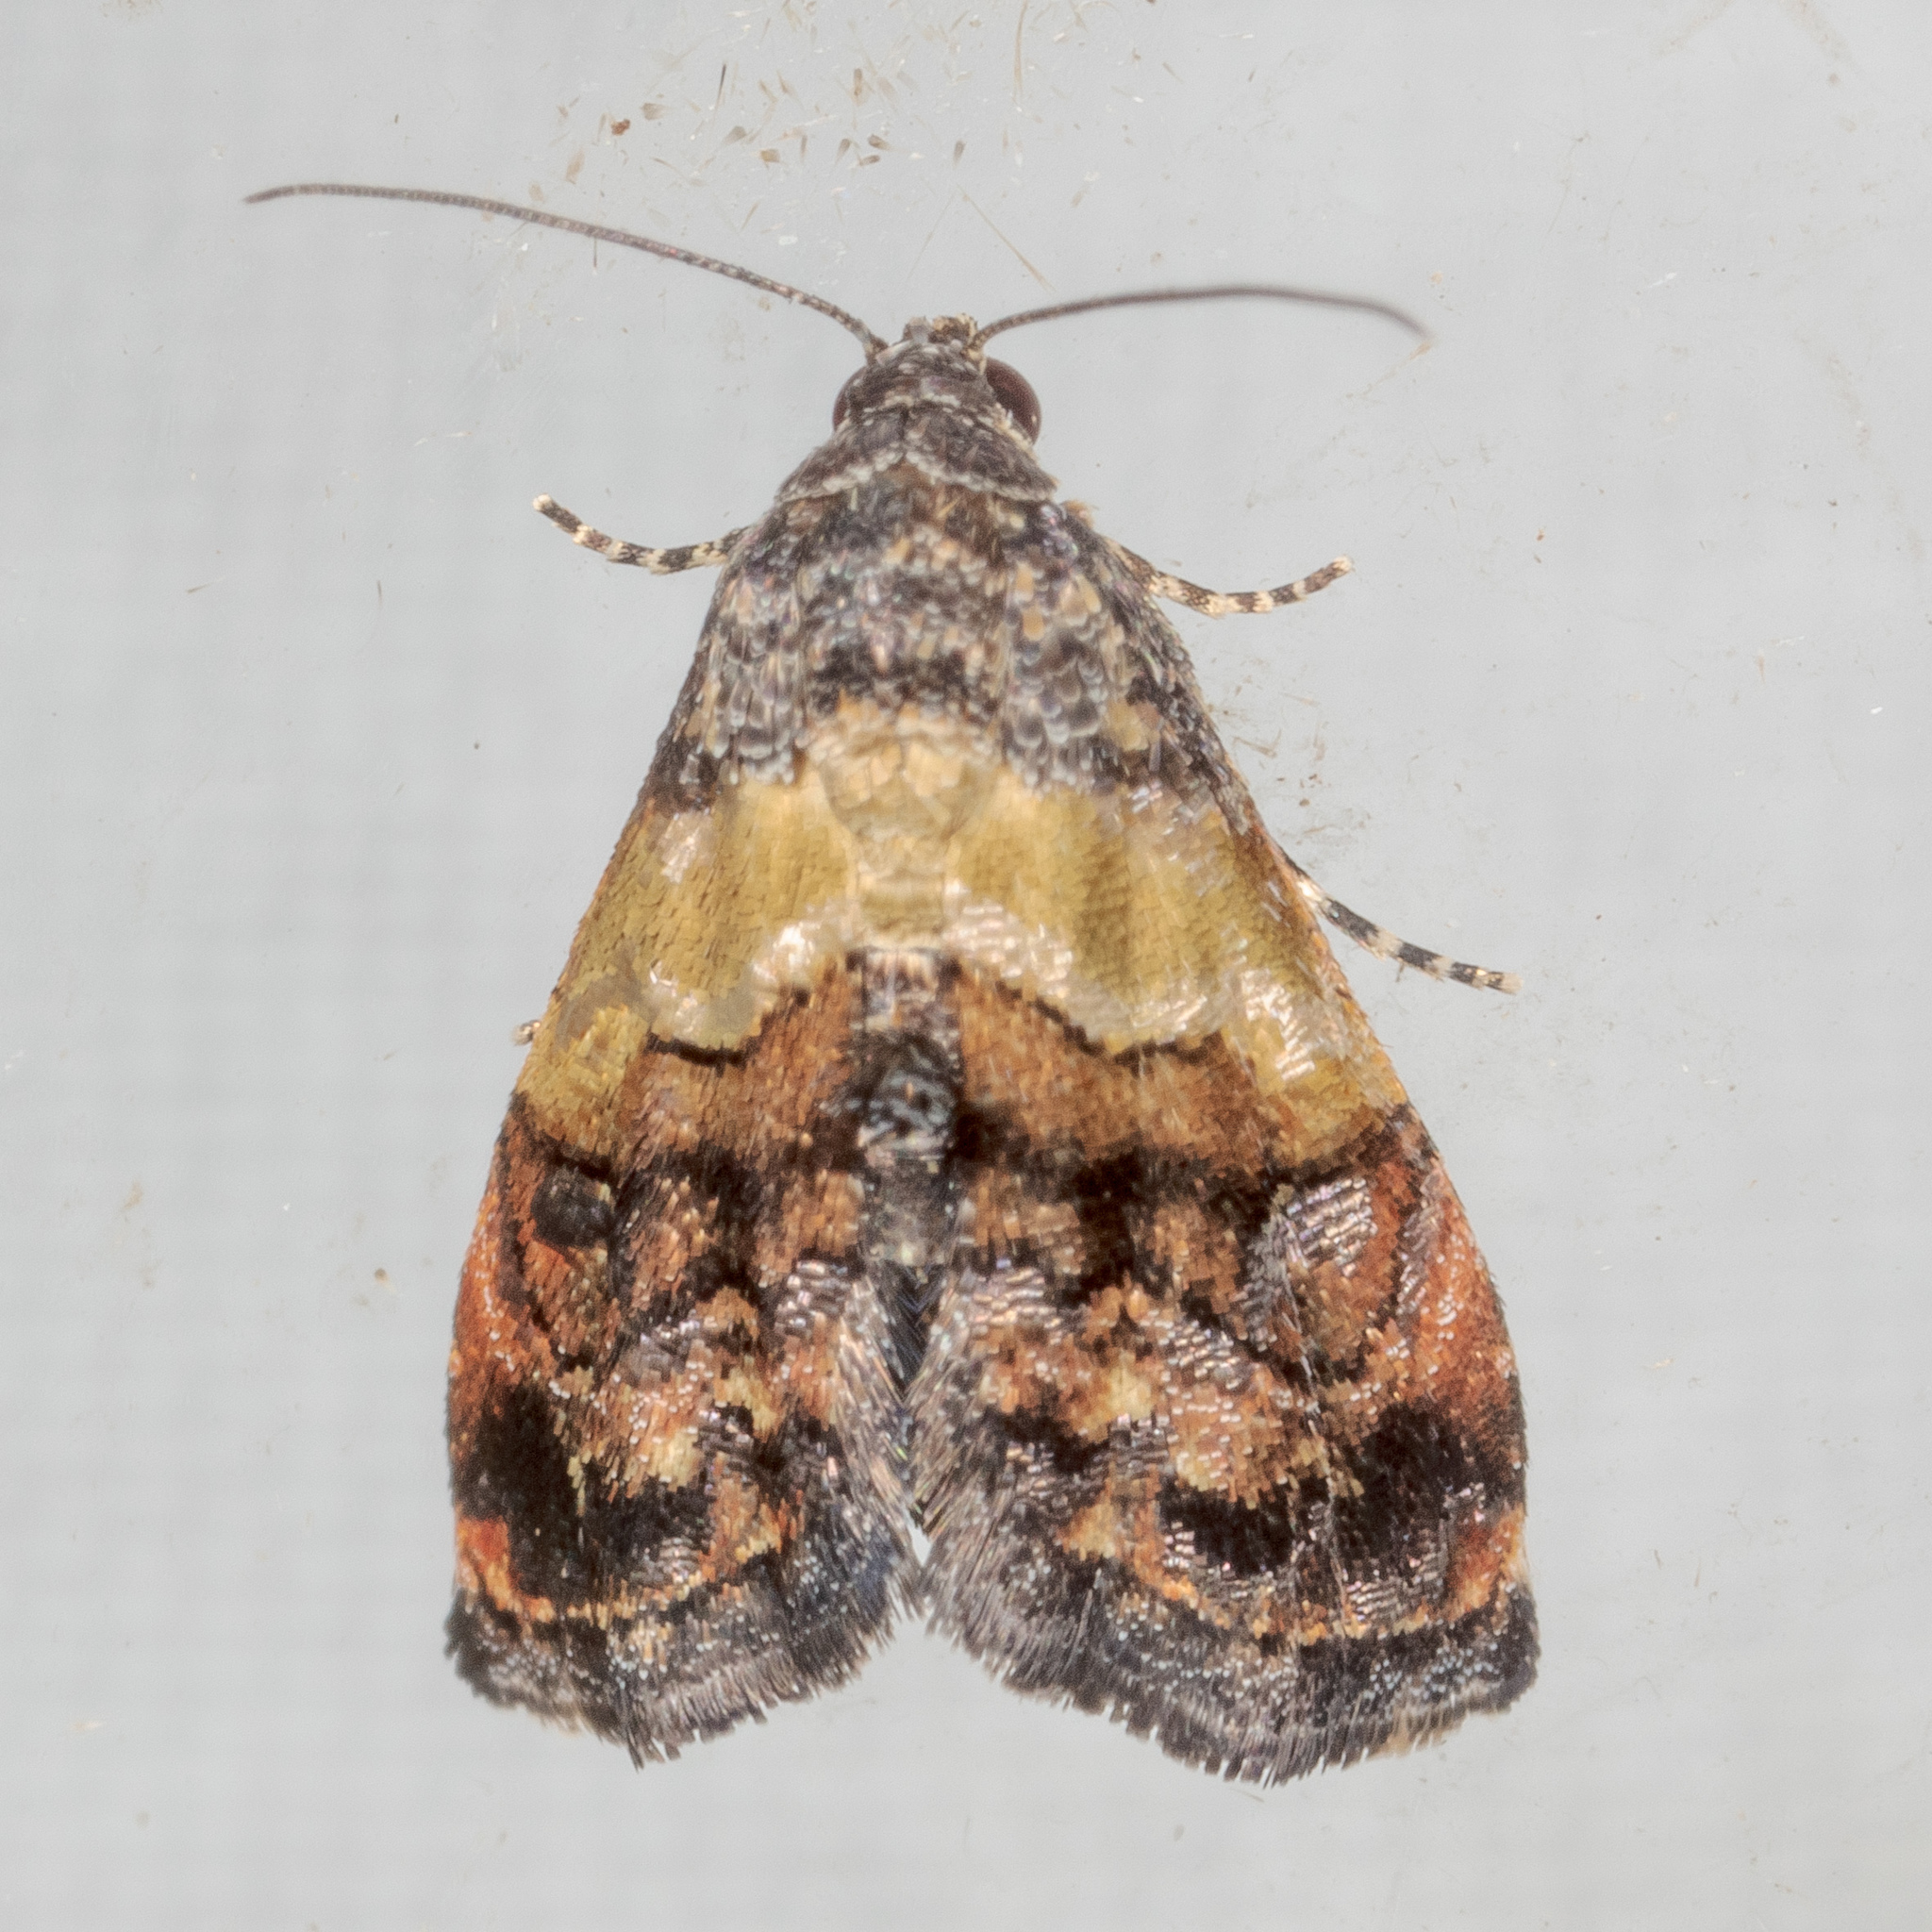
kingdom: Animalia
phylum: Arthropoda
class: Insecta
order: Lepidoptera
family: Noctuidae
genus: Tripudia
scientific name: Tripudia flavofasciata
